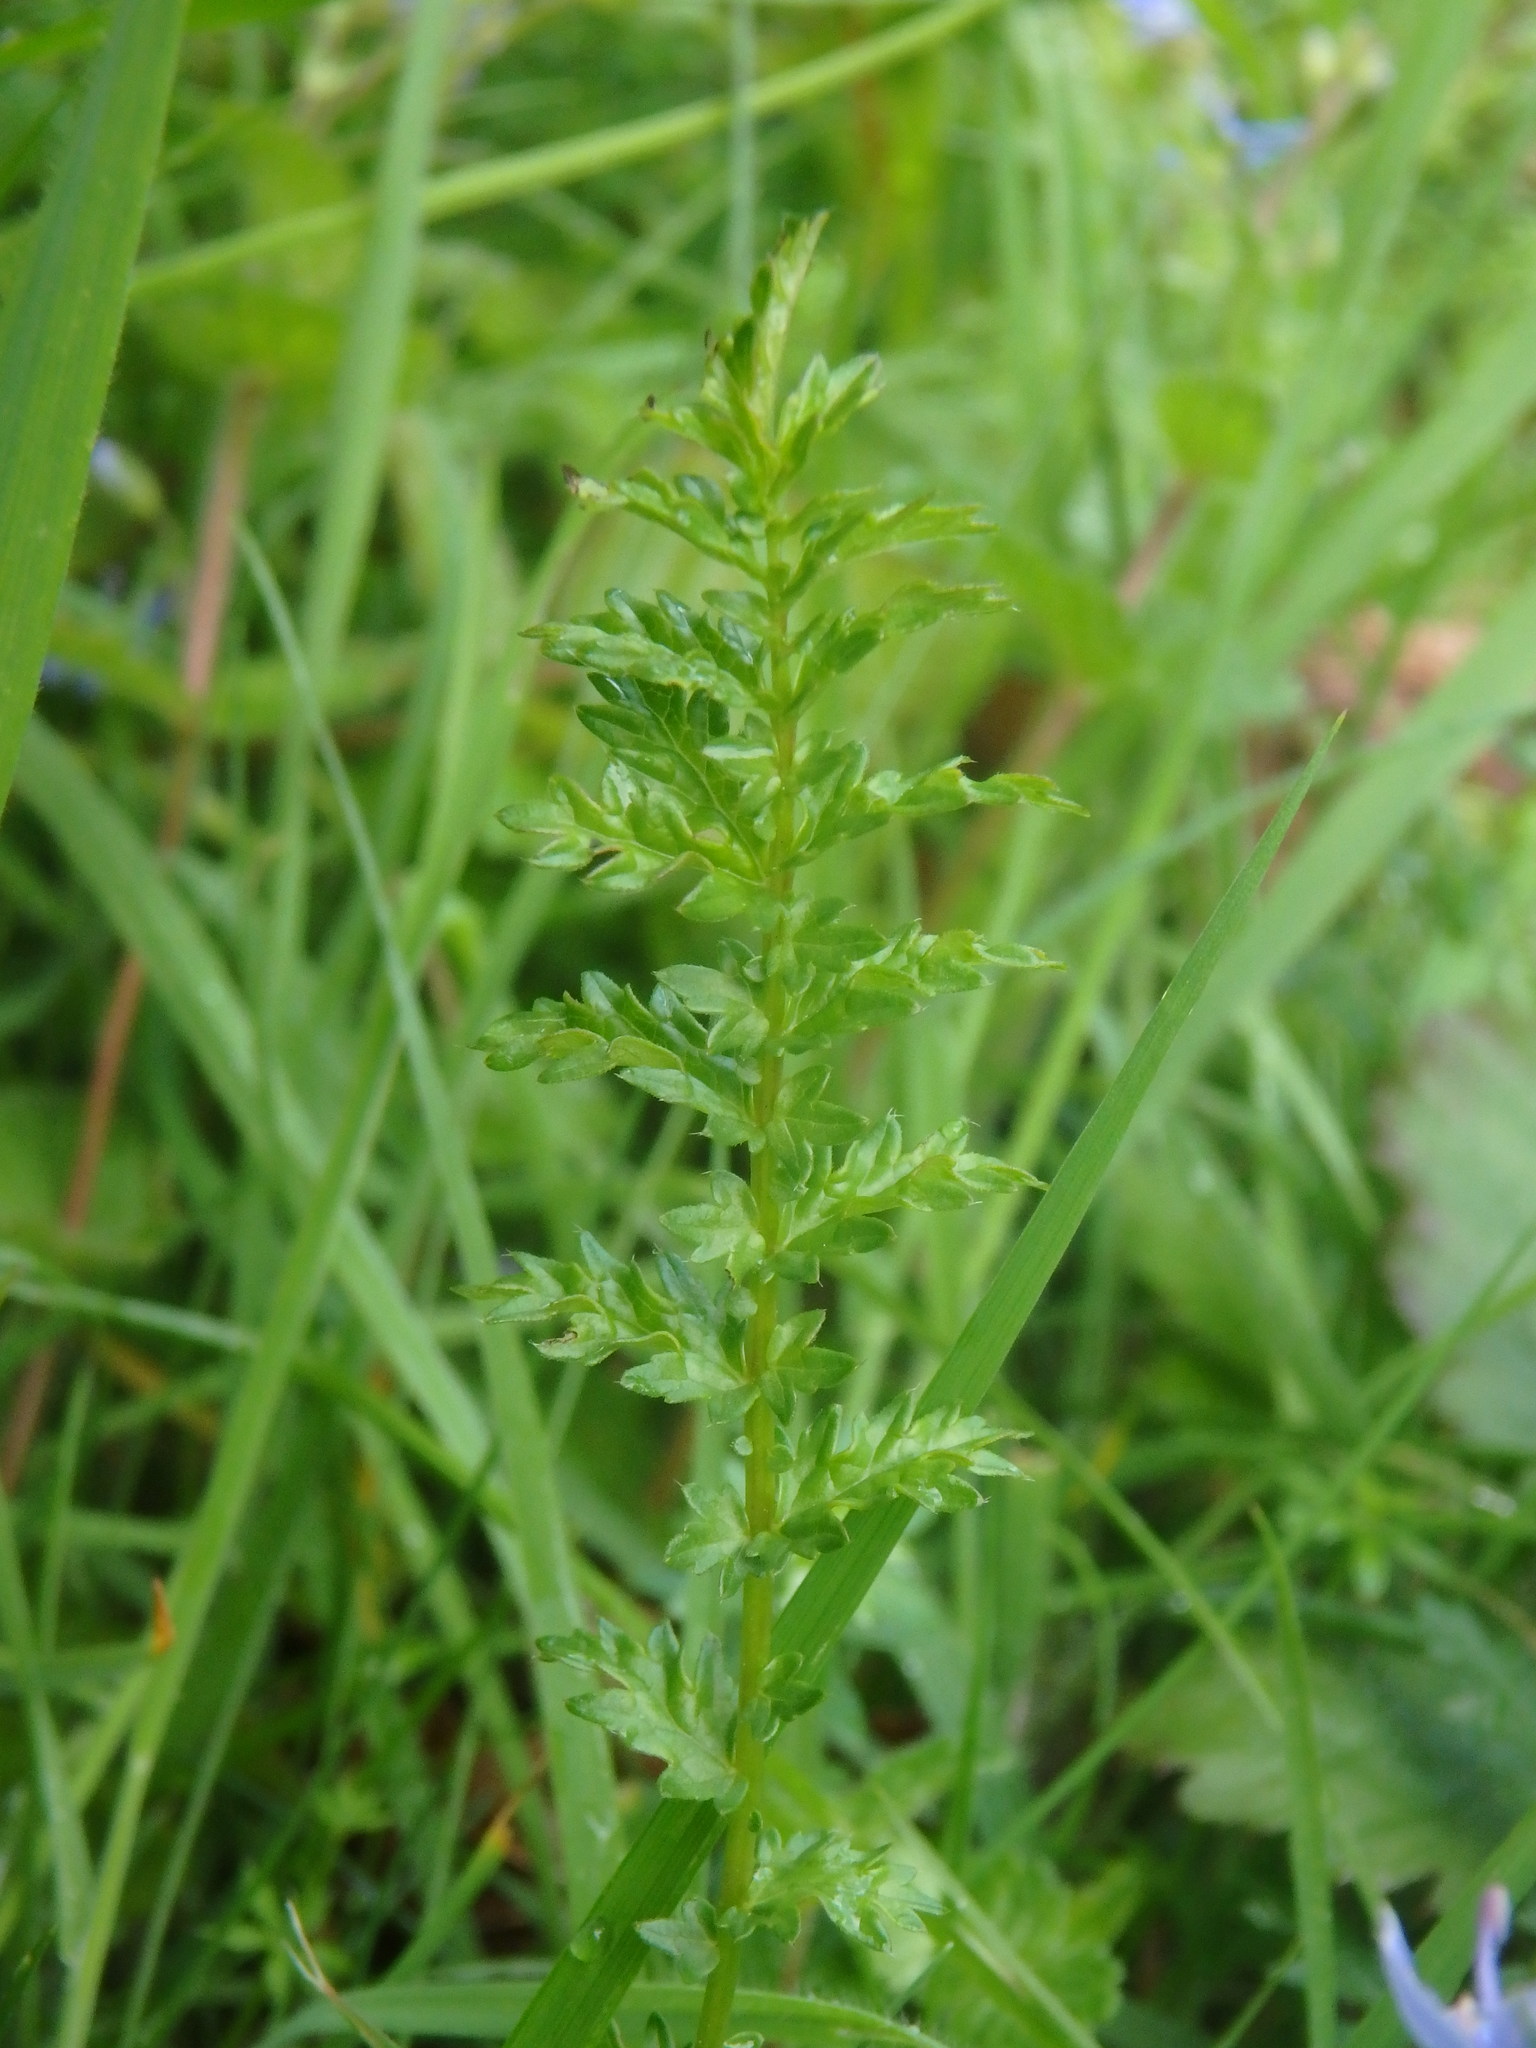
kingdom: Plantae
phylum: Tracheophyta
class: Magnoliopsida
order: Rosales
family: Rosaceae
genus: Filipendula
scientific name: Filipendula vulgaris
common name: Dropwort
